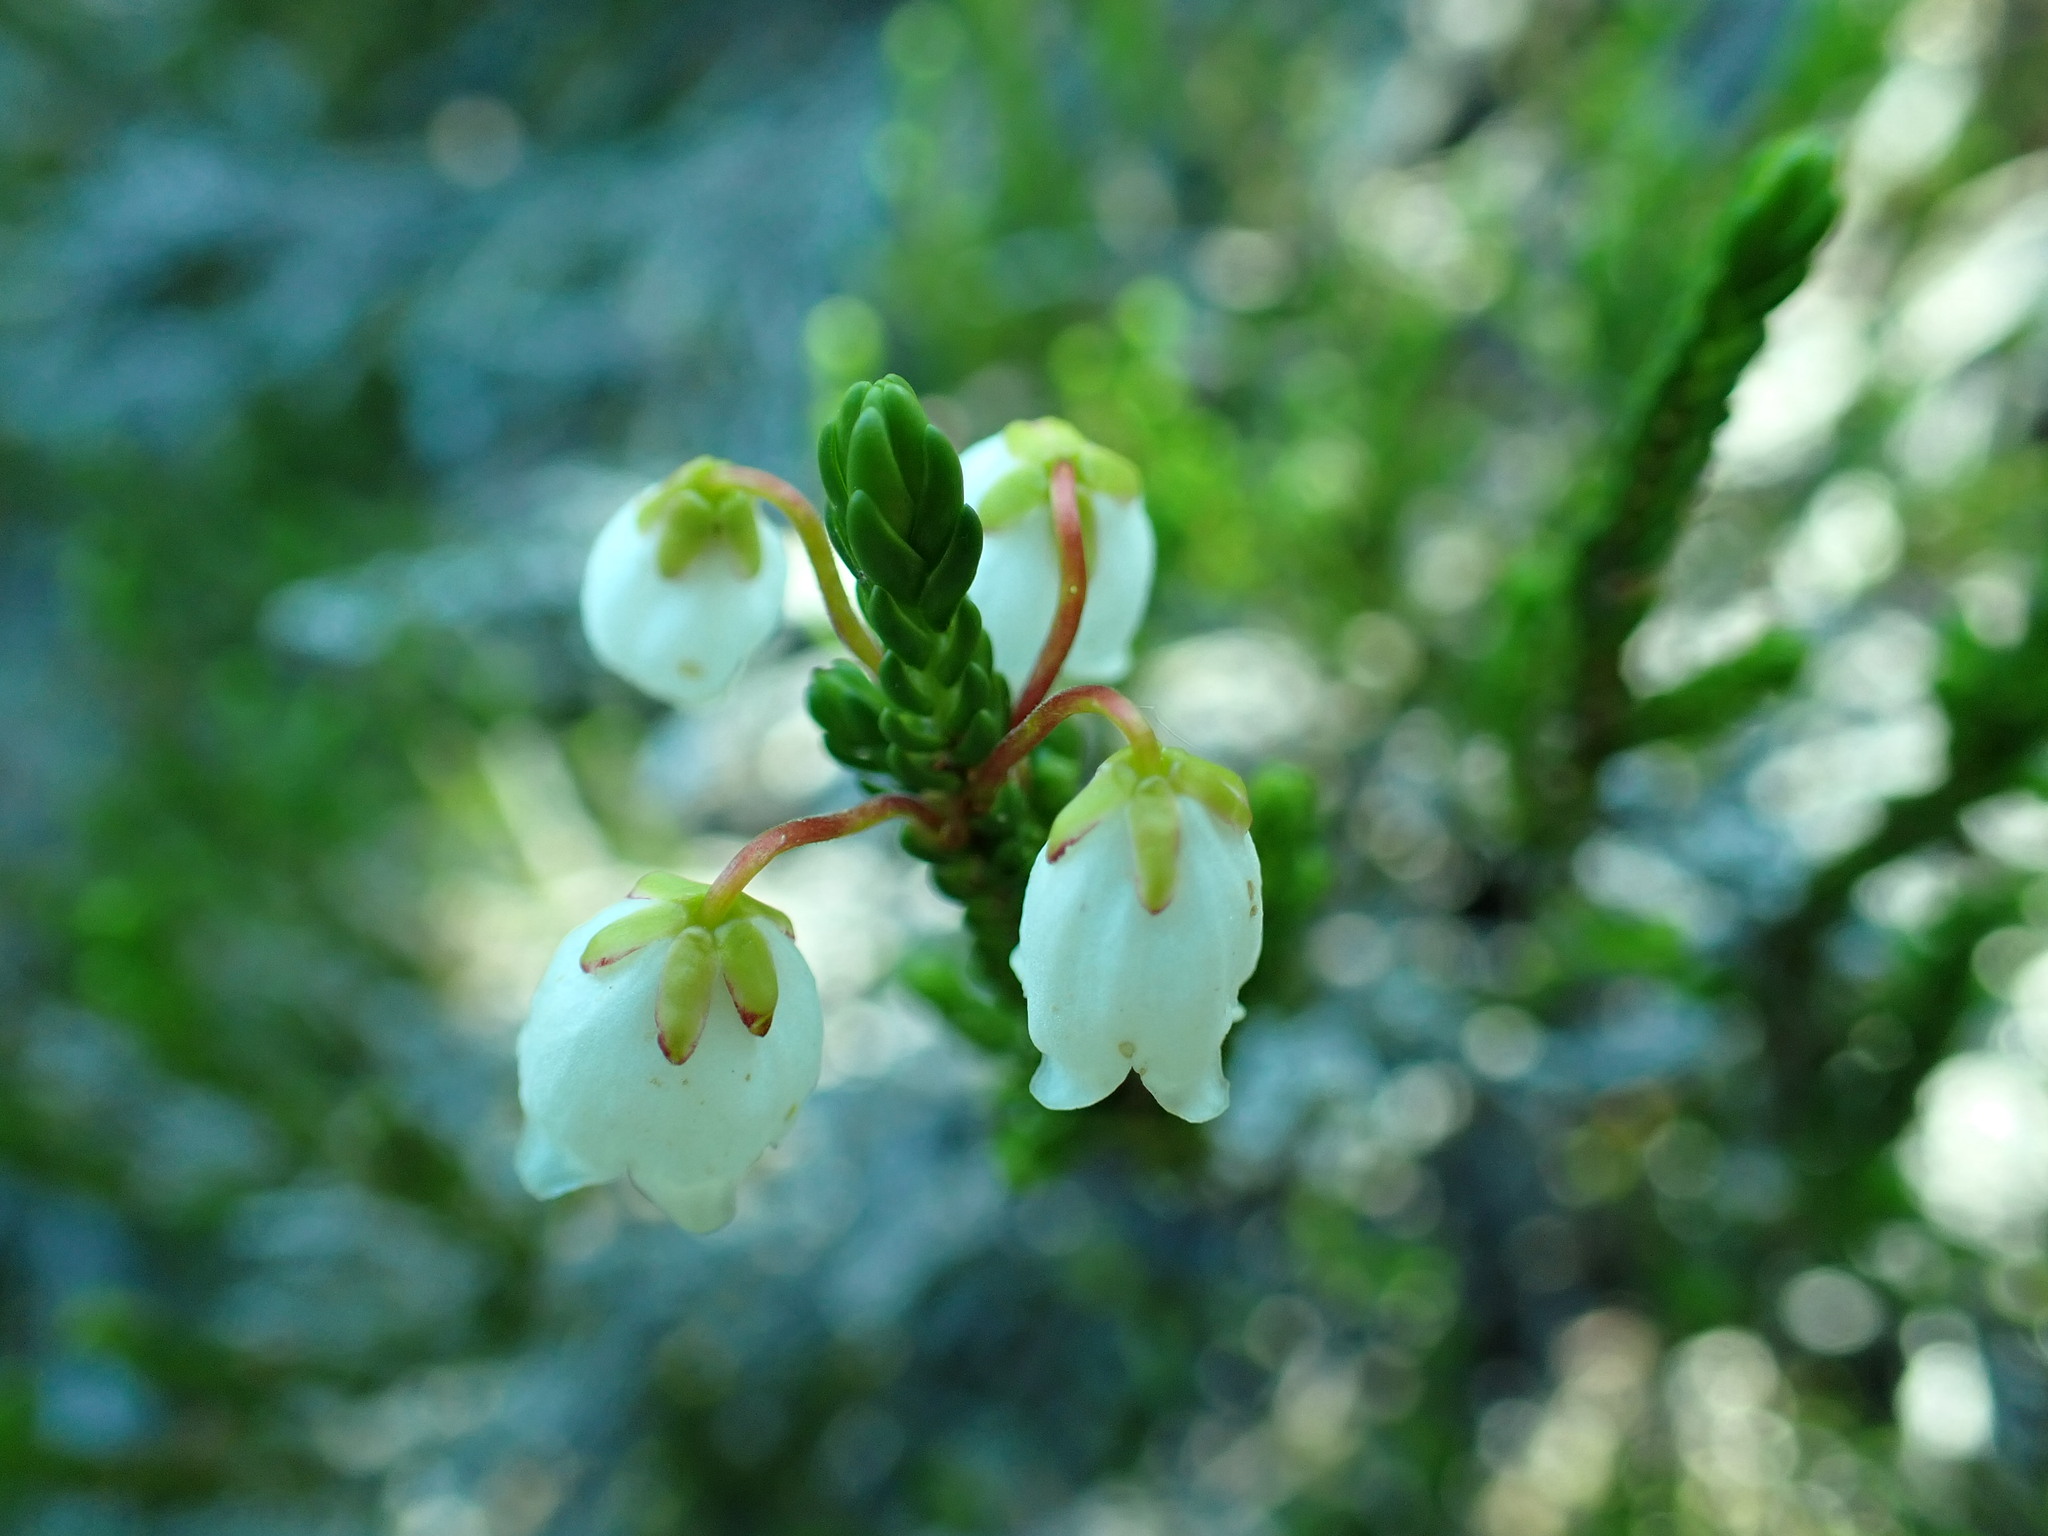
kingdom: Plantae
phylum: Tracheophyta
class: Magnoliopsida
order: Ericales
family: Ericaceae
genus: Cassiope
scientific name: Cassiope mertensiana
